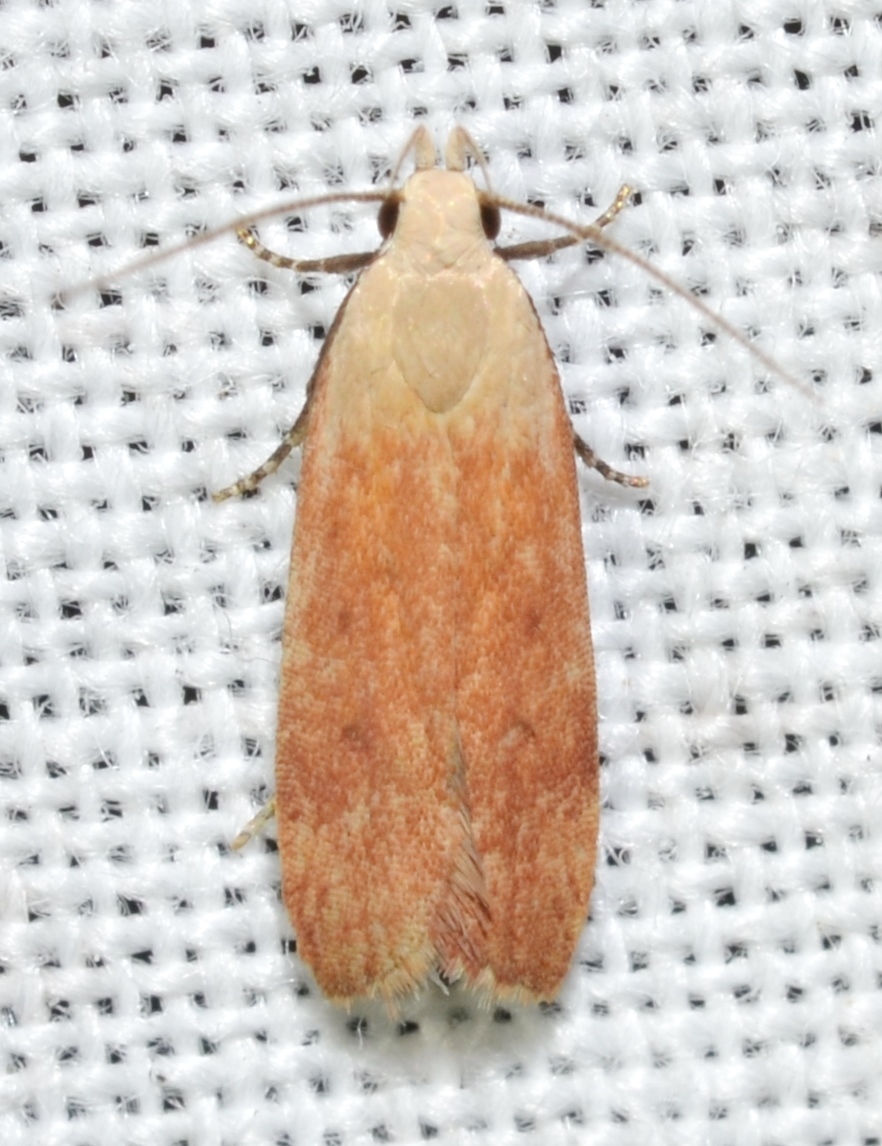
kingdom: Animalia
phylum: Arthropoda
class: Insecta
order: Lepidoptera
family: Gelechiidae
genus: Anacampsis
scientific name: Anacampsis fullonella
